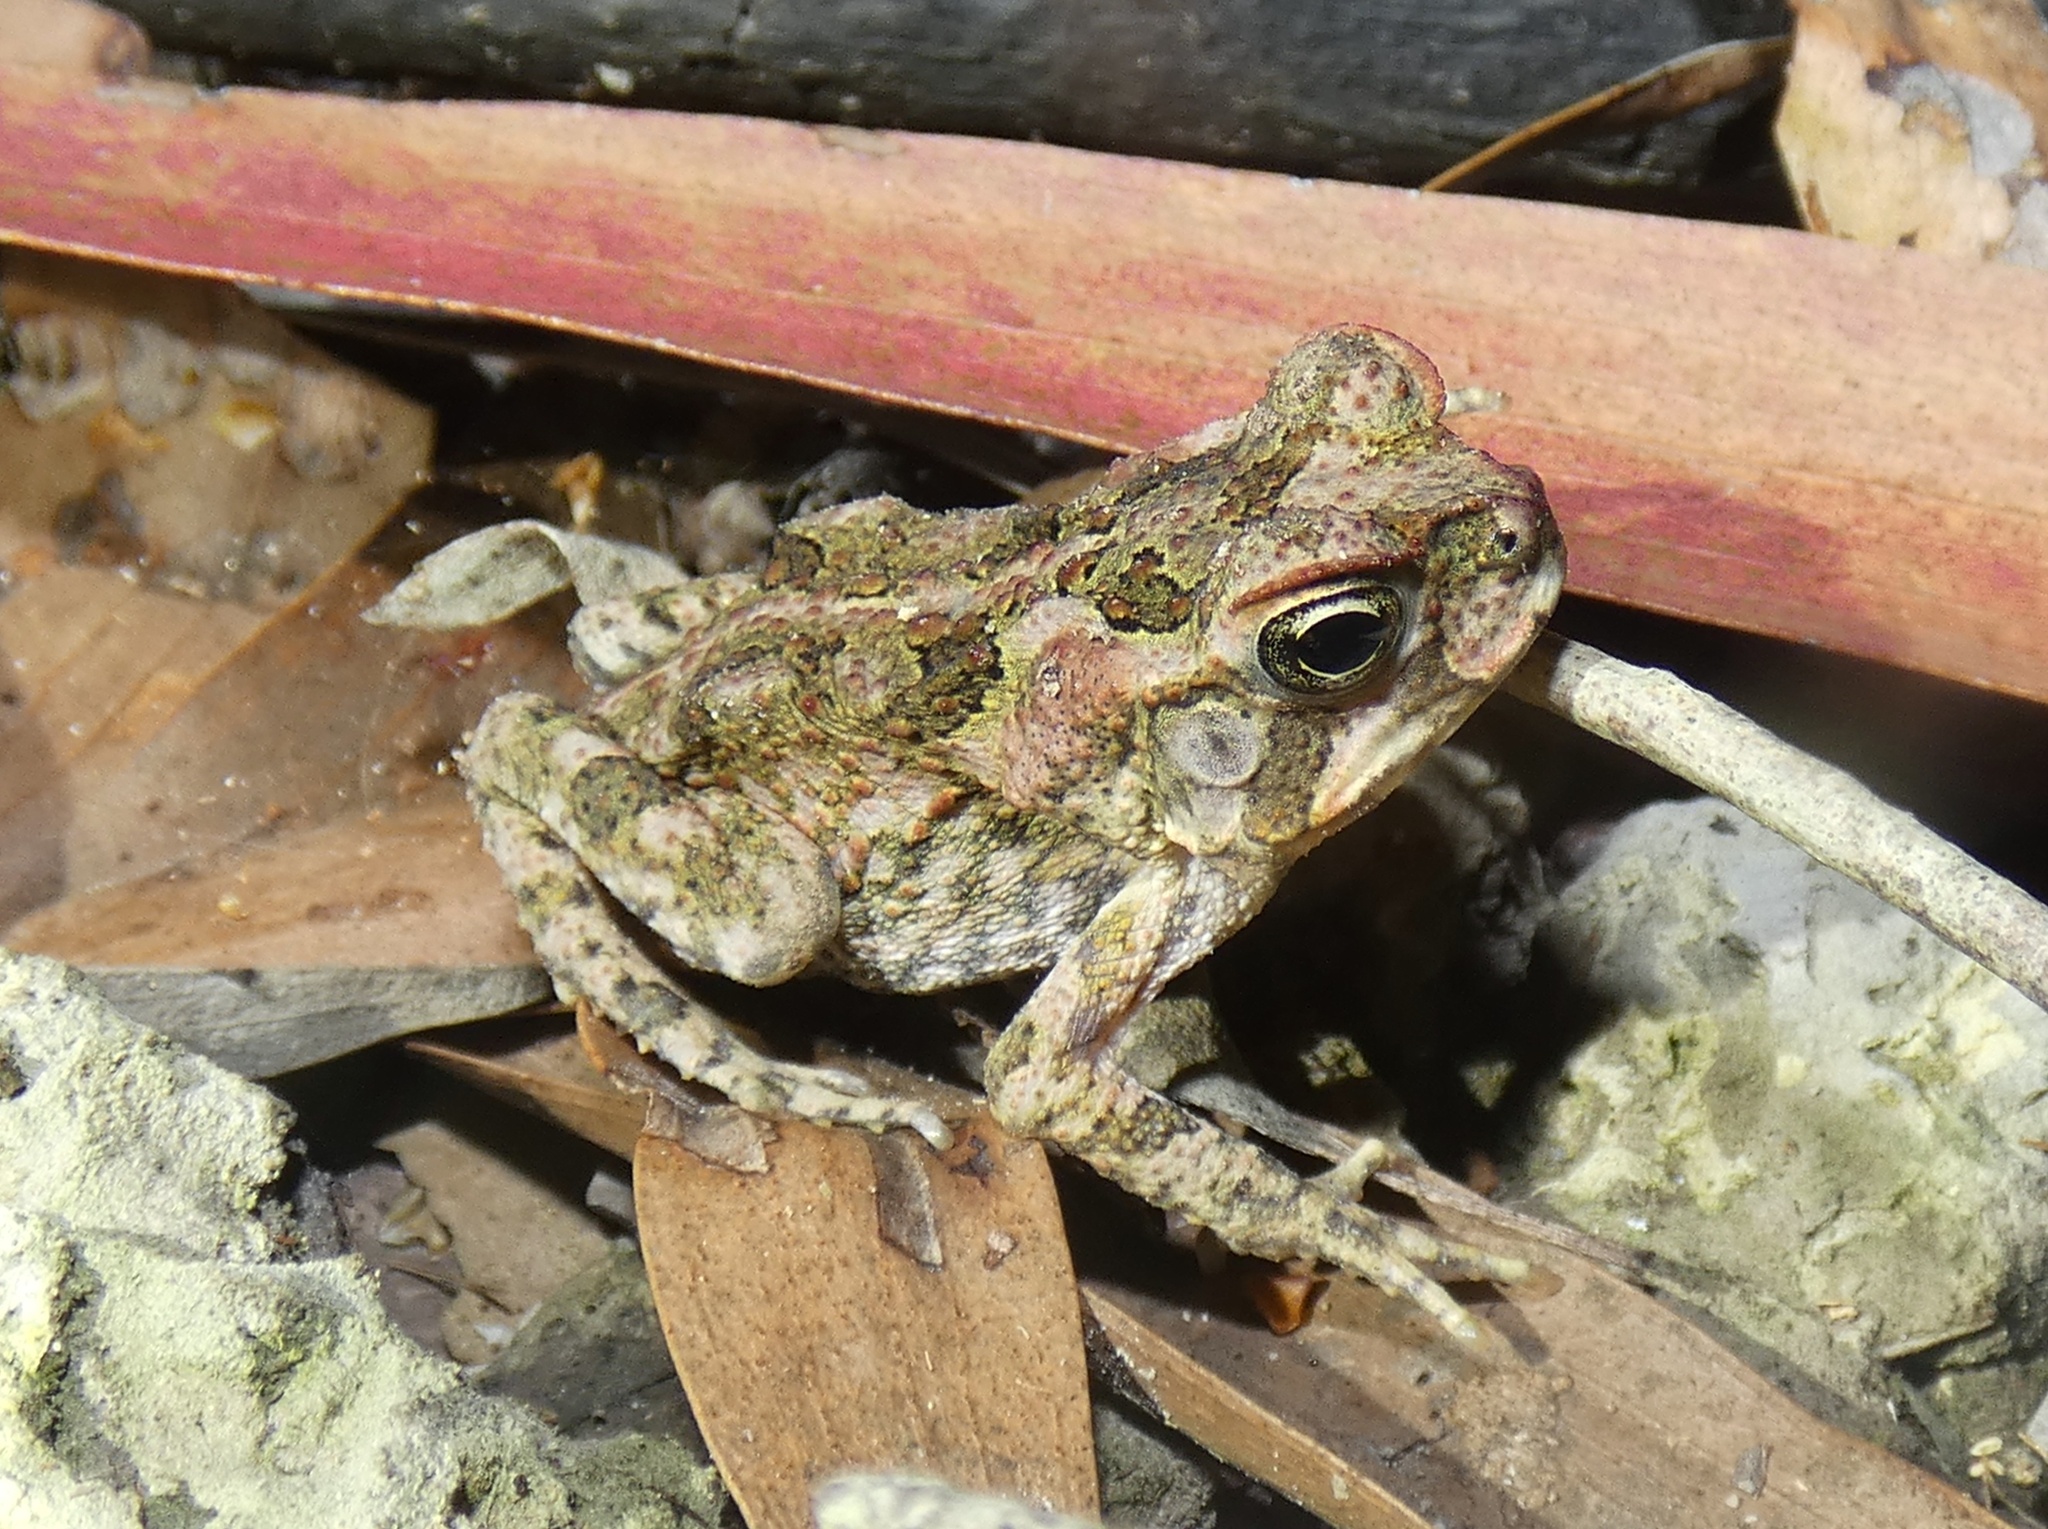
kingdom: Animalia
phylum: Chordata
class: Amphibia
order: Anura
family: Bufonidae
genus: Rhinella
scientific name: Rhinella marina
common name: Cane toad
